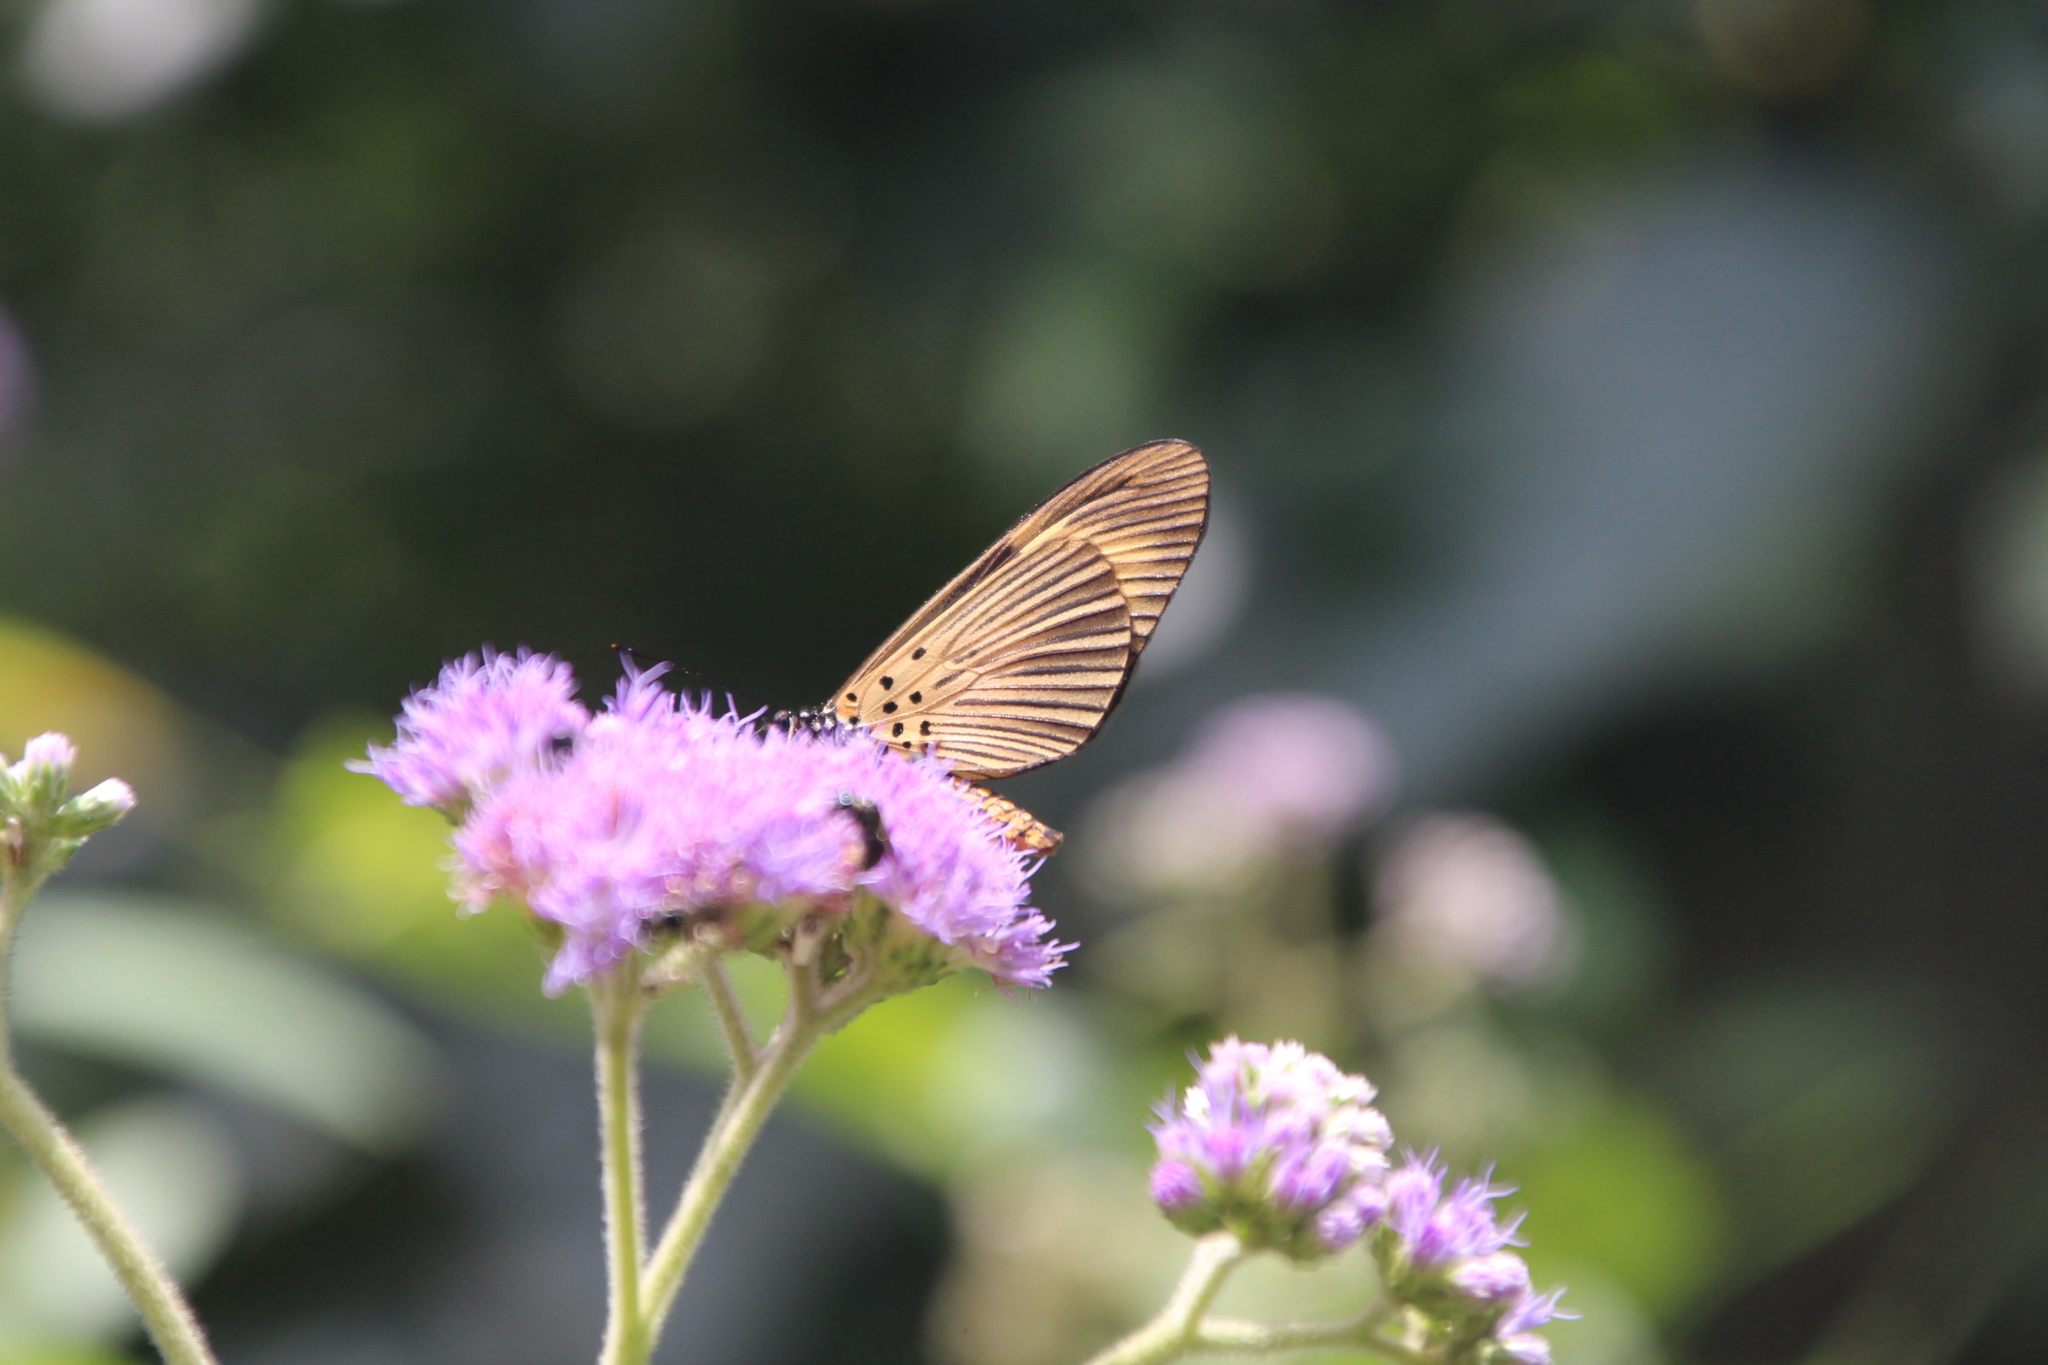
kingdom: Animalia
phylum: Arthropoda
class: Insecta
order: Lepidoptera
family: Nymphalidae
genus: Acraea
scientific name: Acraea
